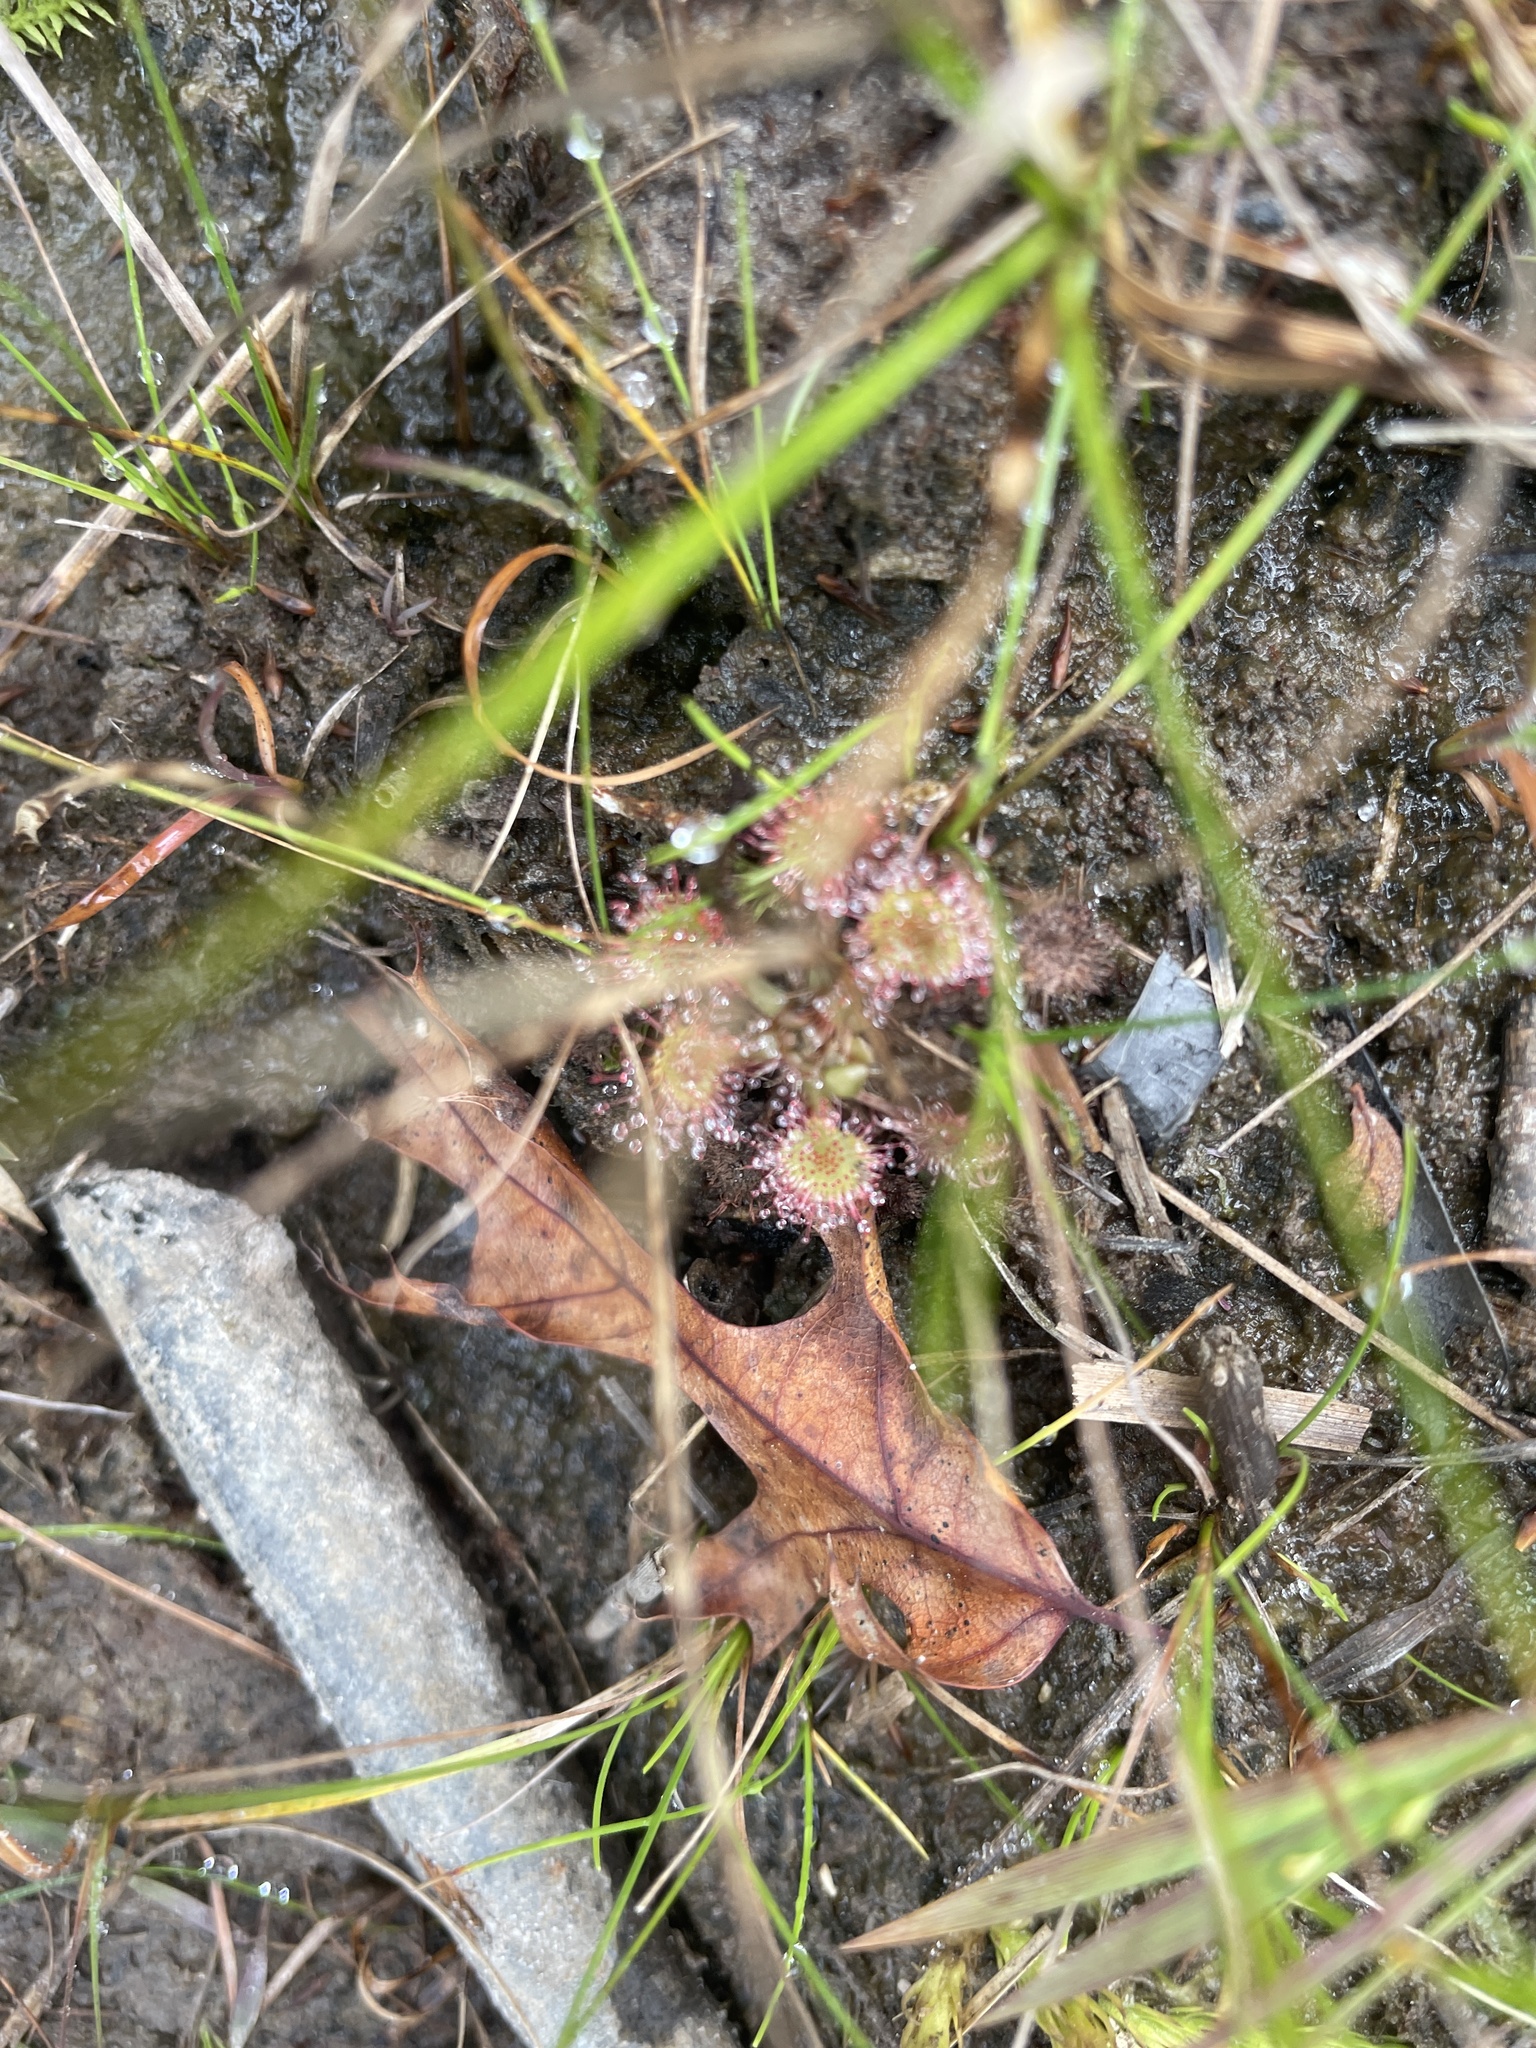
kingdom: Plantae
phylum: Tracheophyta
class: Magnoliopsida
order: Caryophyllales
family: Droseraceae
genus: Drosera
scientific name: Drosera rotundifolia
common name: Round-leaved sundew
